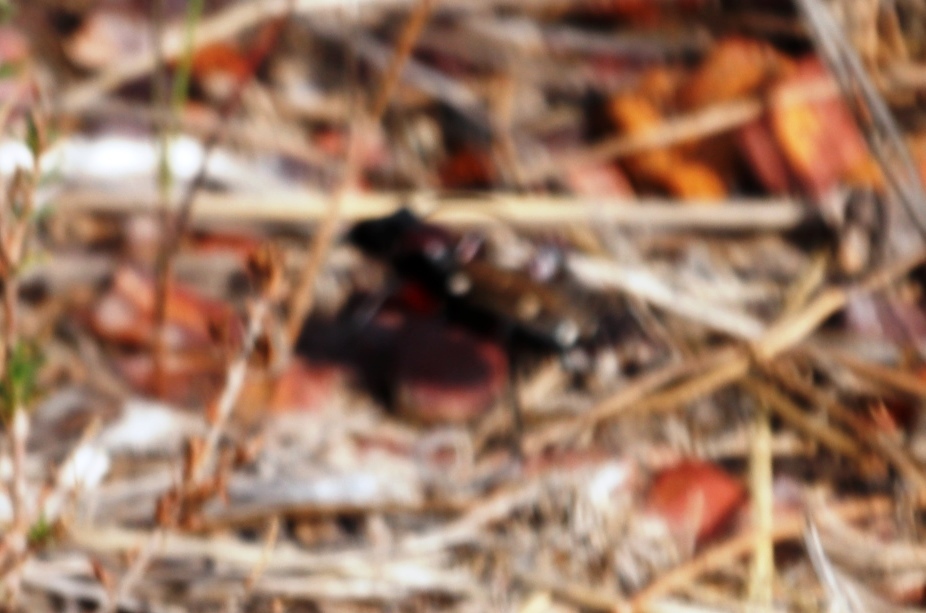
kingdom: Animalia
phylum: Arthropoda
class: Insecta
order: Coleoptera
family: Carabidae
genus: Anthia
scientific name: Anthia decemguttata
